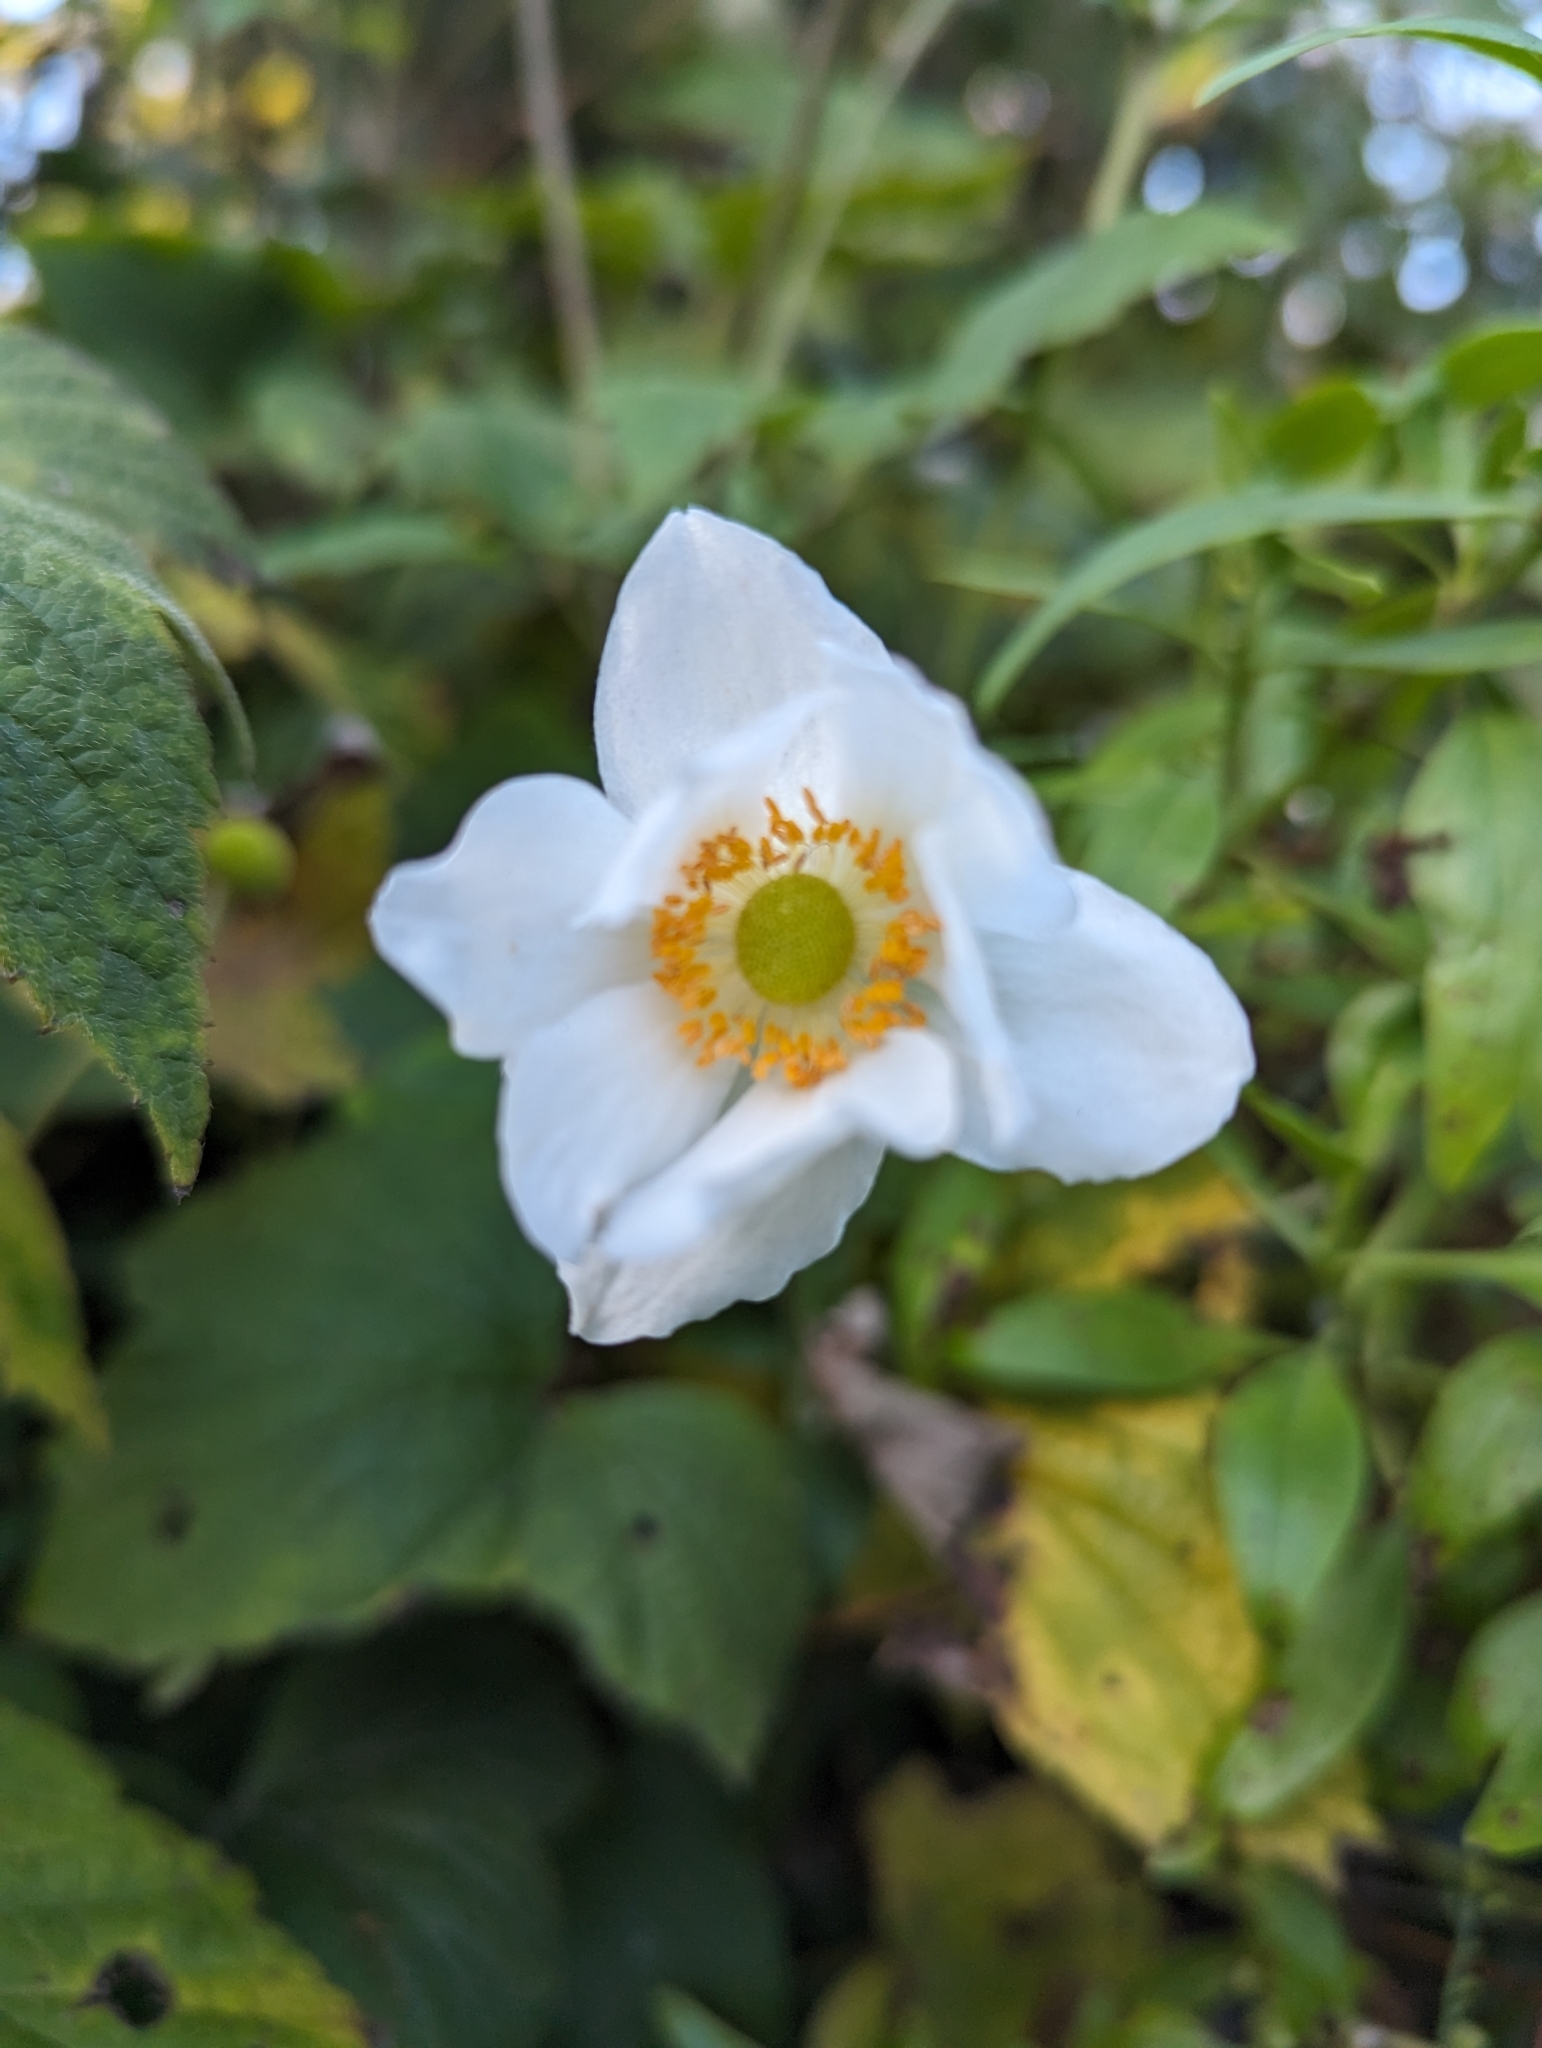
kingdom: Plantae
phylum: Tracheophyta
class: Magnoliopsida
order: Ranunculales
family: Ranunculaceae
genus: Eriocapitella
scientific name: Eriocapitella japonica
